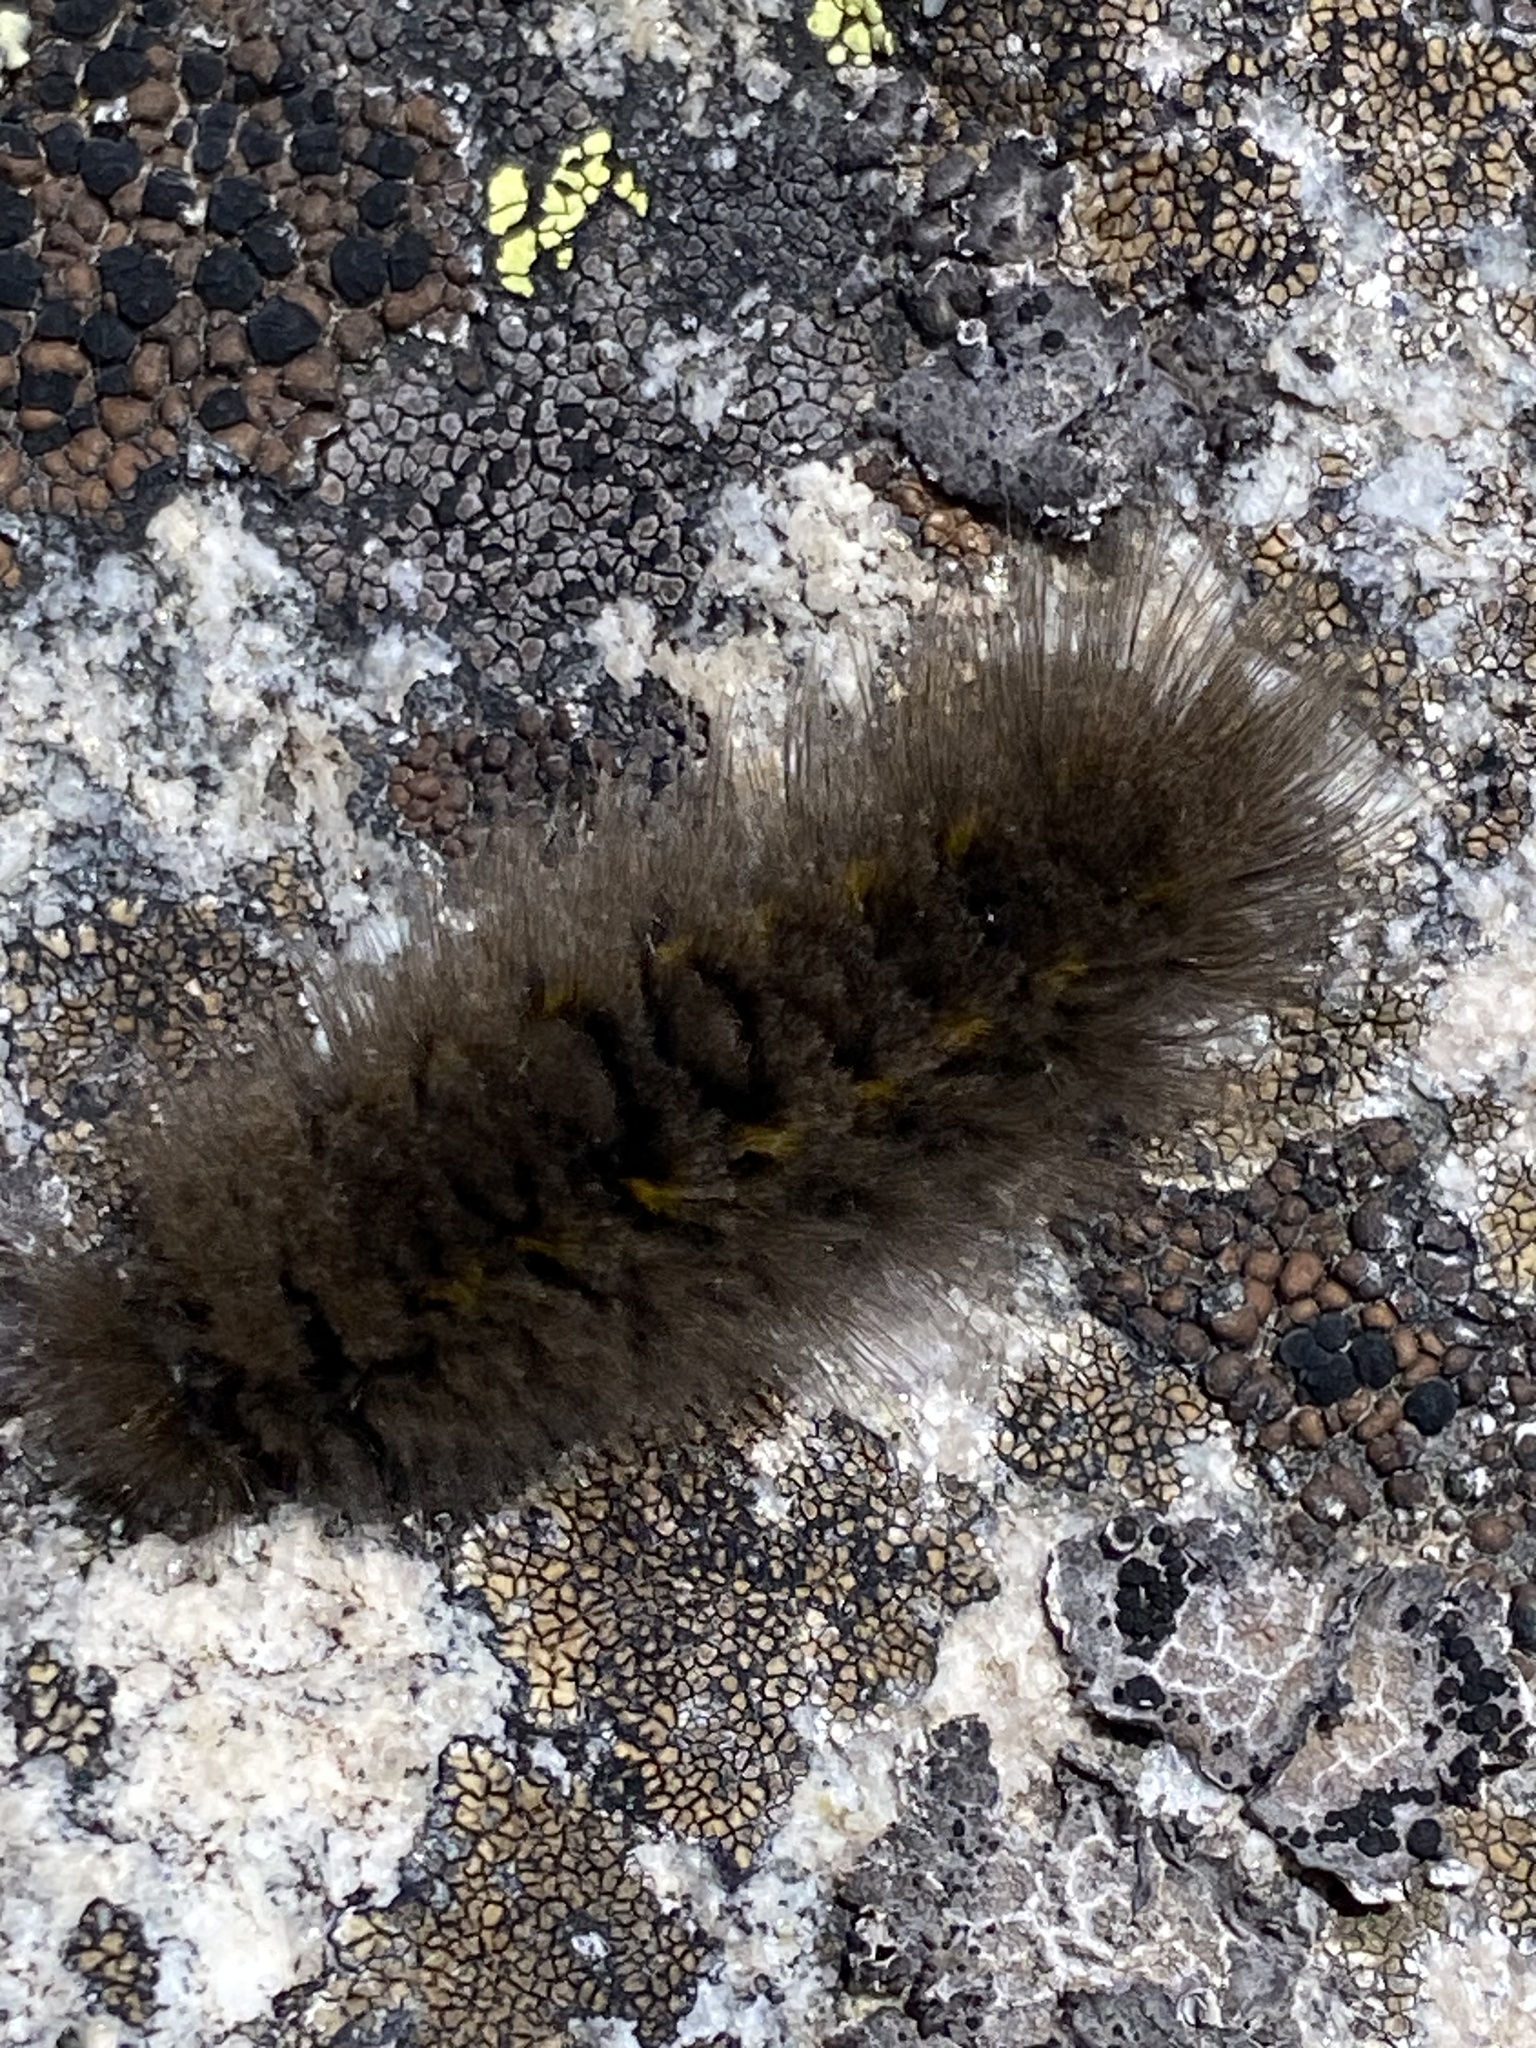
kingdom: Animalia
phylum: Arthropoda
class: Insecta
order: Lepidoptera
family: Erebidae
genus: Gynaephora
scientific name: Gynaephora rossii
